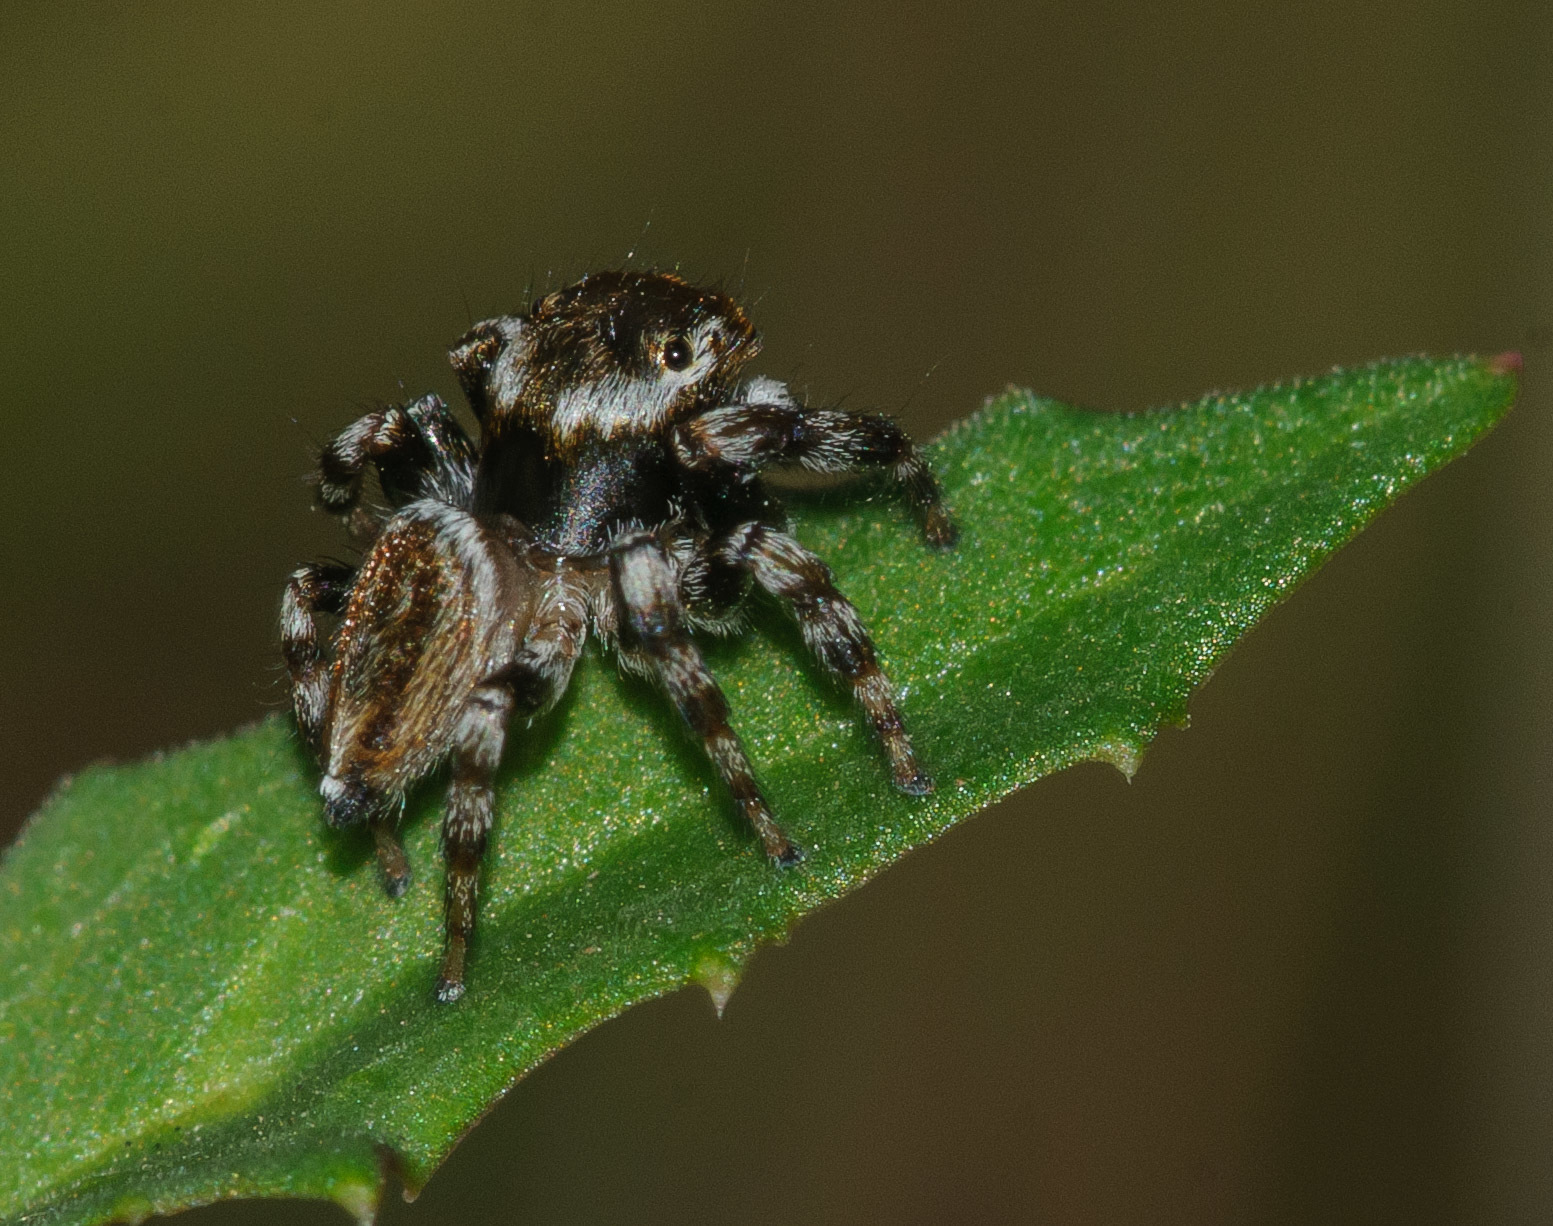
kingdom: Animalia
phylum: Arthropoda
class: Arachnida
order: Araneae
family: Salticidae
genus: Maratus
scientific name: Maratus scutulatus
